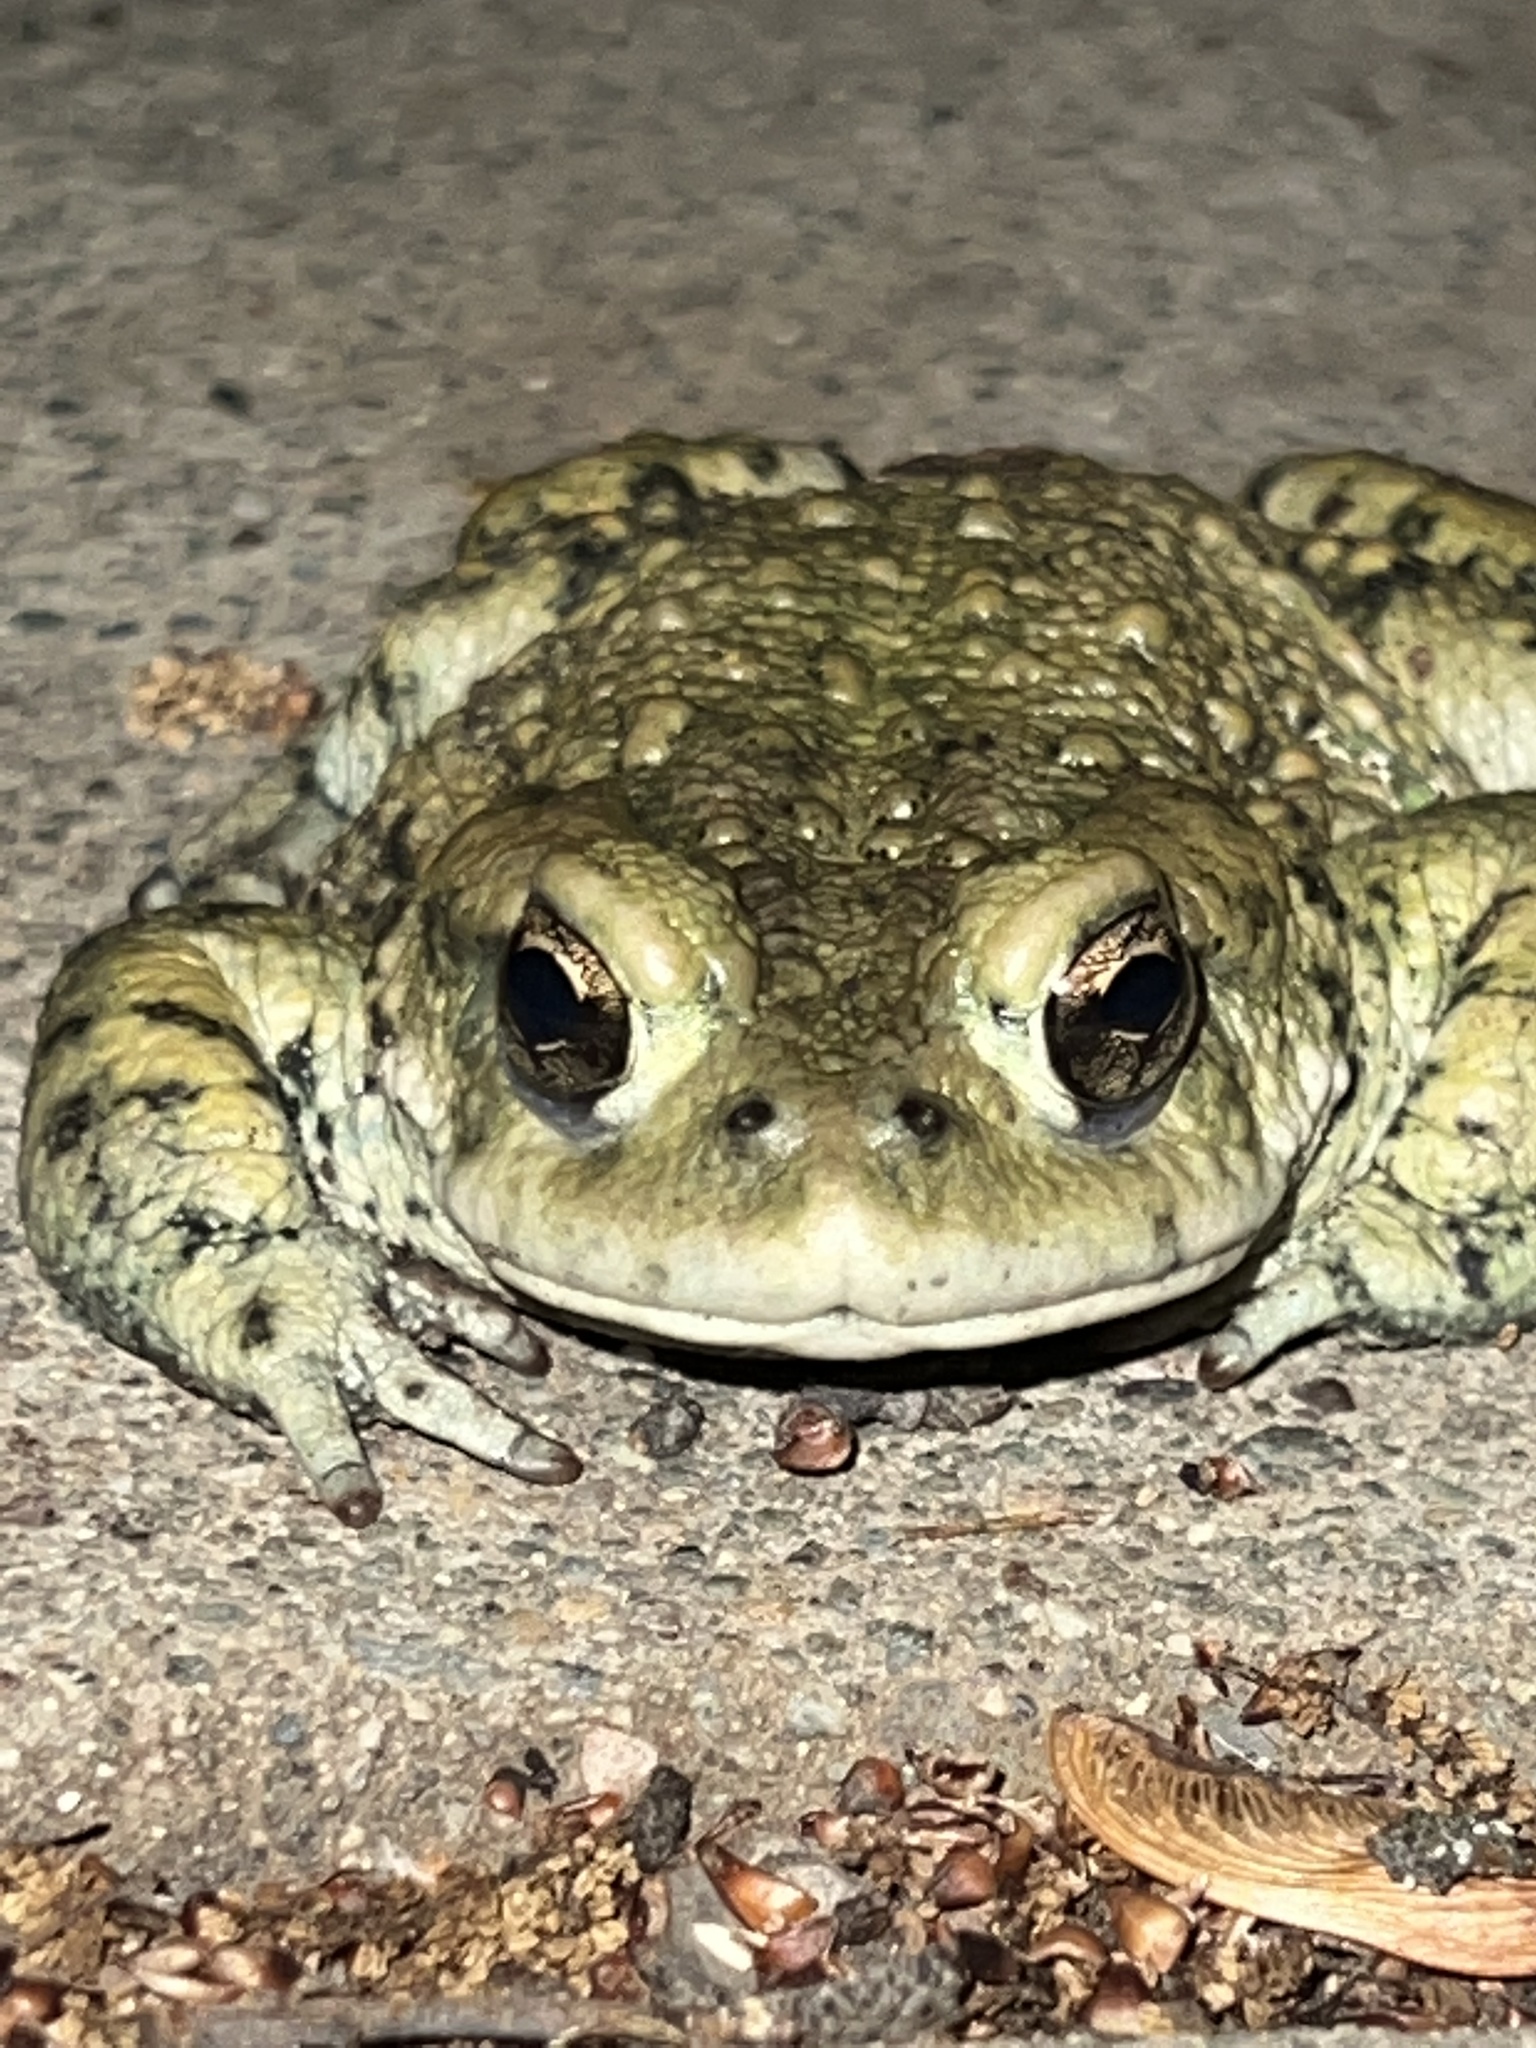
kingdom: Animalia
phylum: Chordata
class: Amphibia
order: Anura
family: Bufonidae
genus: Anaxyrus
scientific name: Anaxyrus boreas
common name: Western toad
